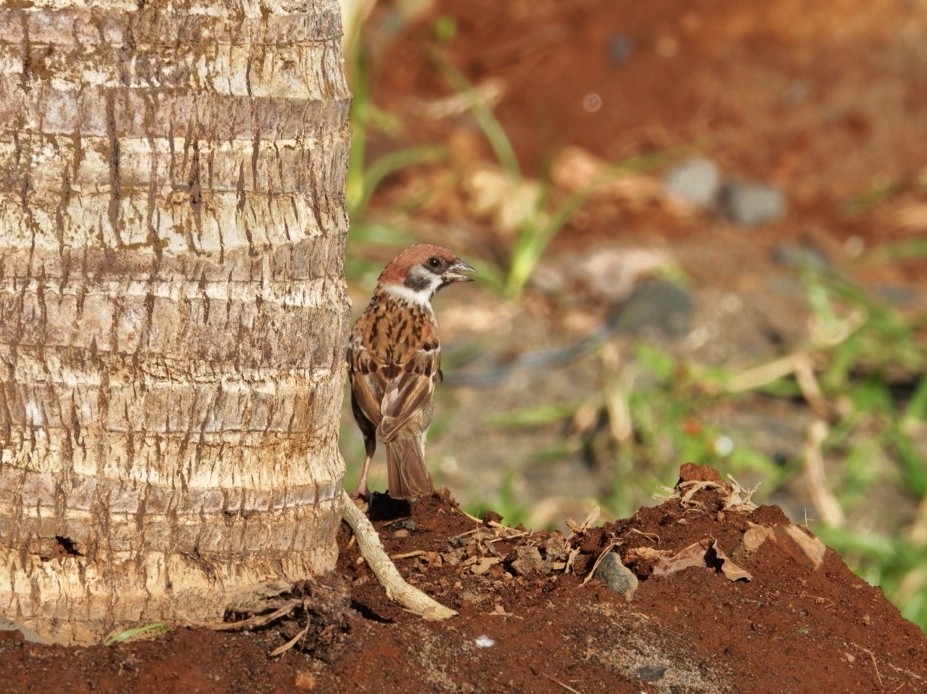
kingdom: Animalia
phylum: Chordata
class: Aves
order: Passeriformes
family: Passeridae
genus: Passer
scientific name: Passer montanus
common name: Eurasian tree sparrow
